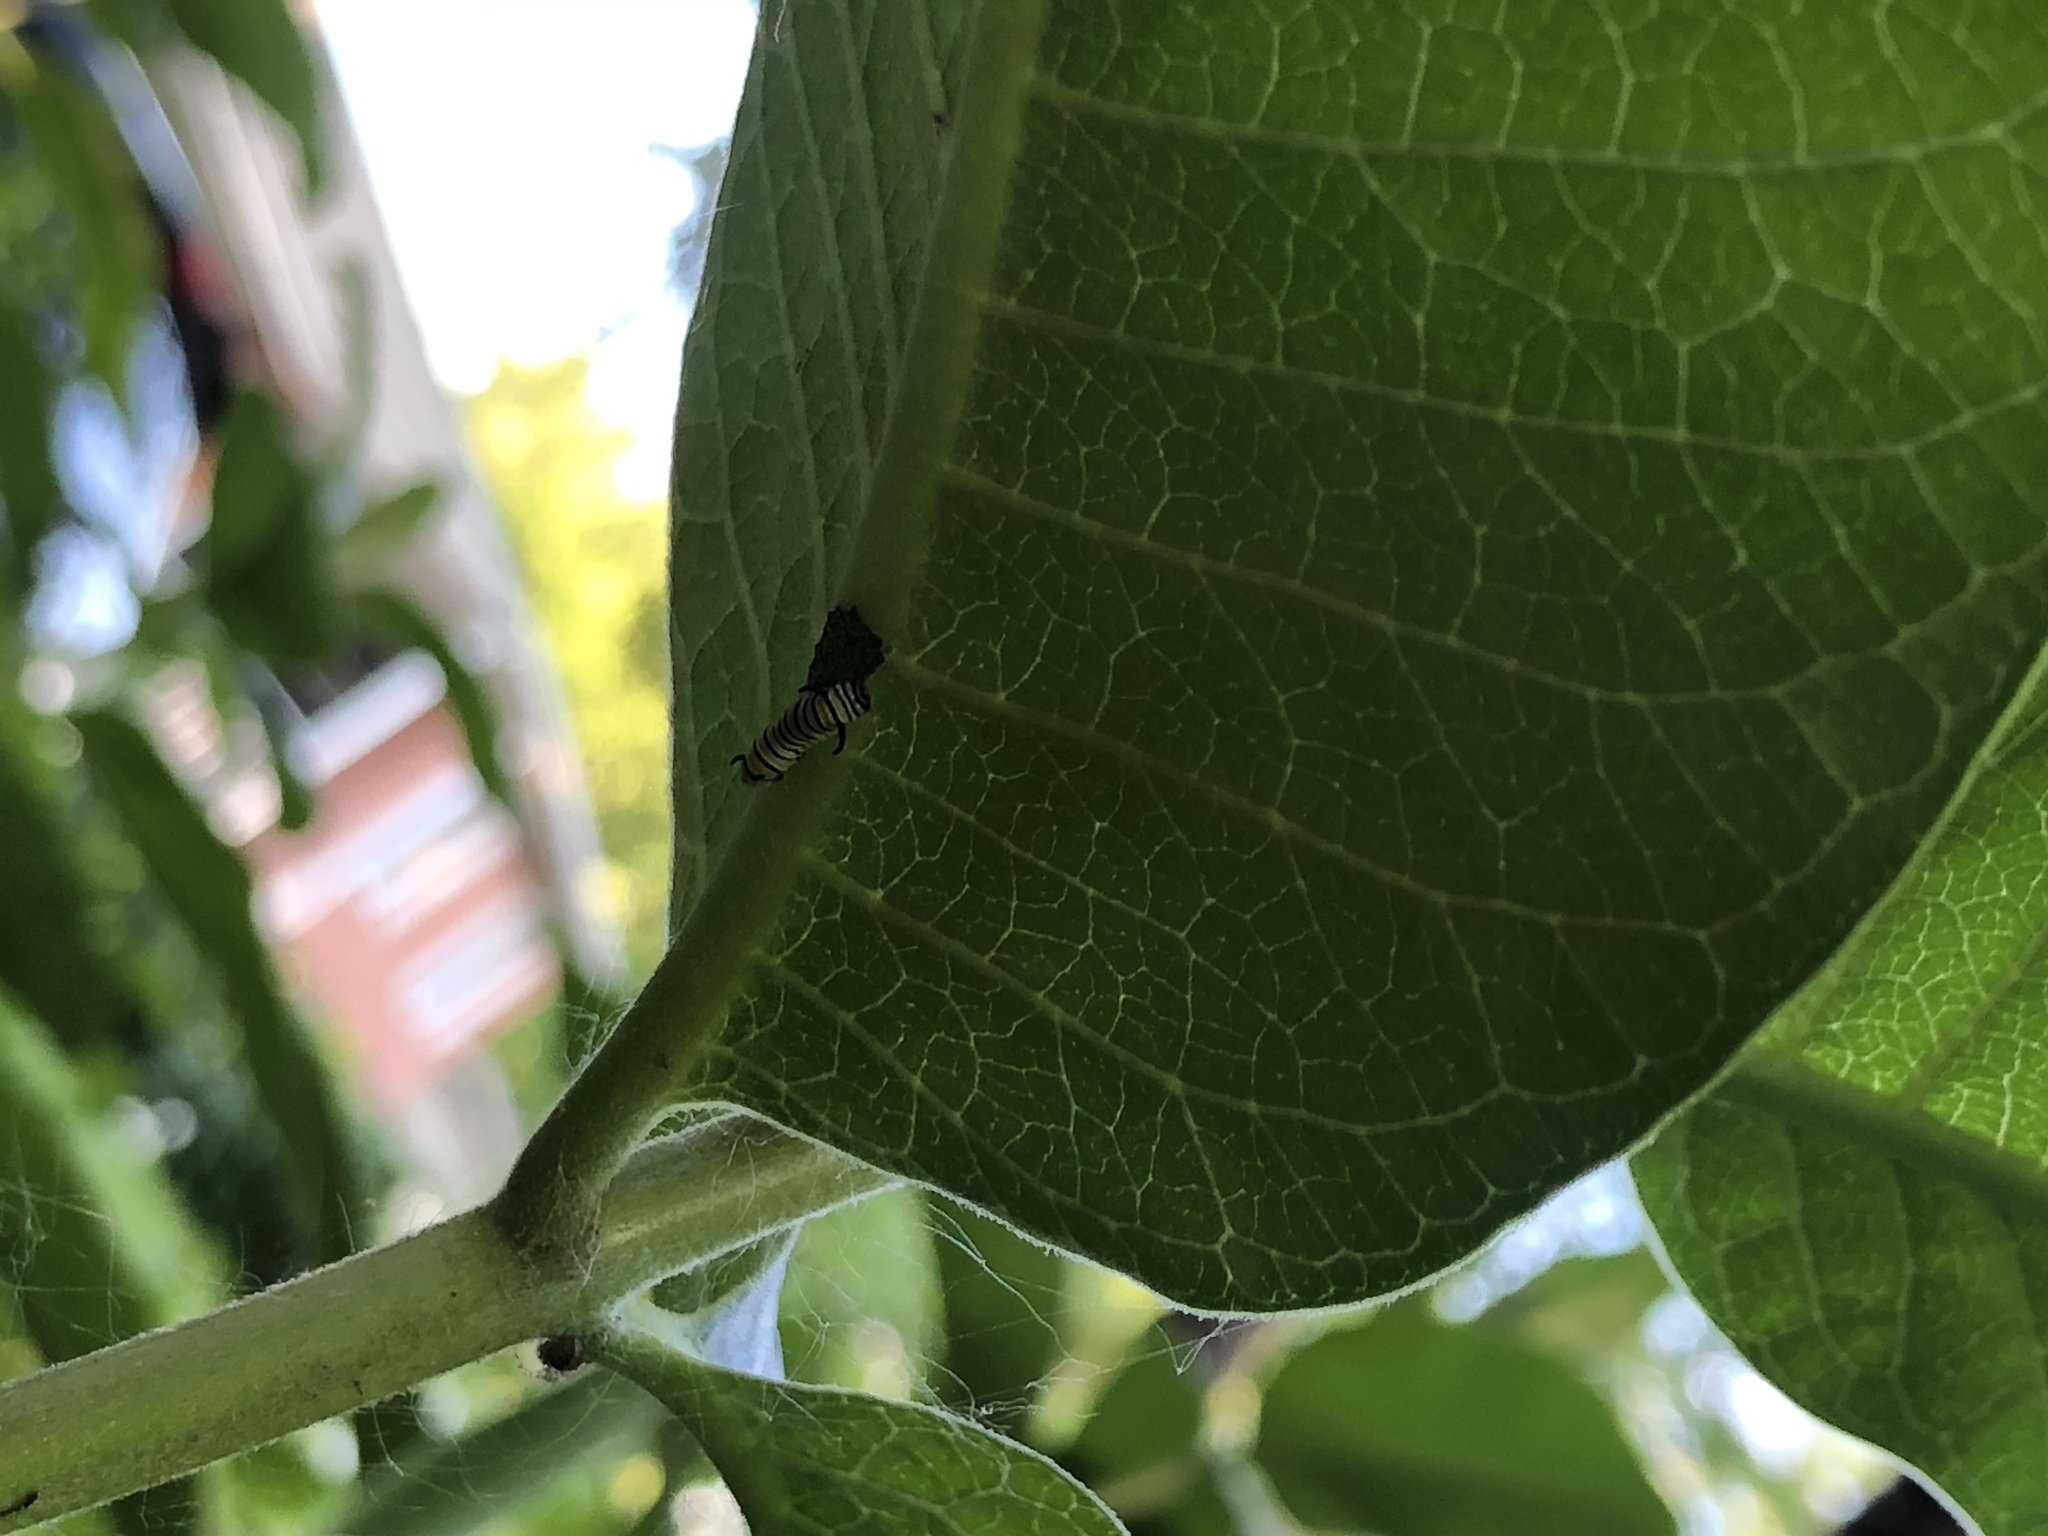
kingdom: Animalia
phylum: Arthropoda
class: Insecta
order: Lepidoptera
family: Nymphalidae
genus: Danaus
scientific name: Danaus plexippus
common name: Monarch
